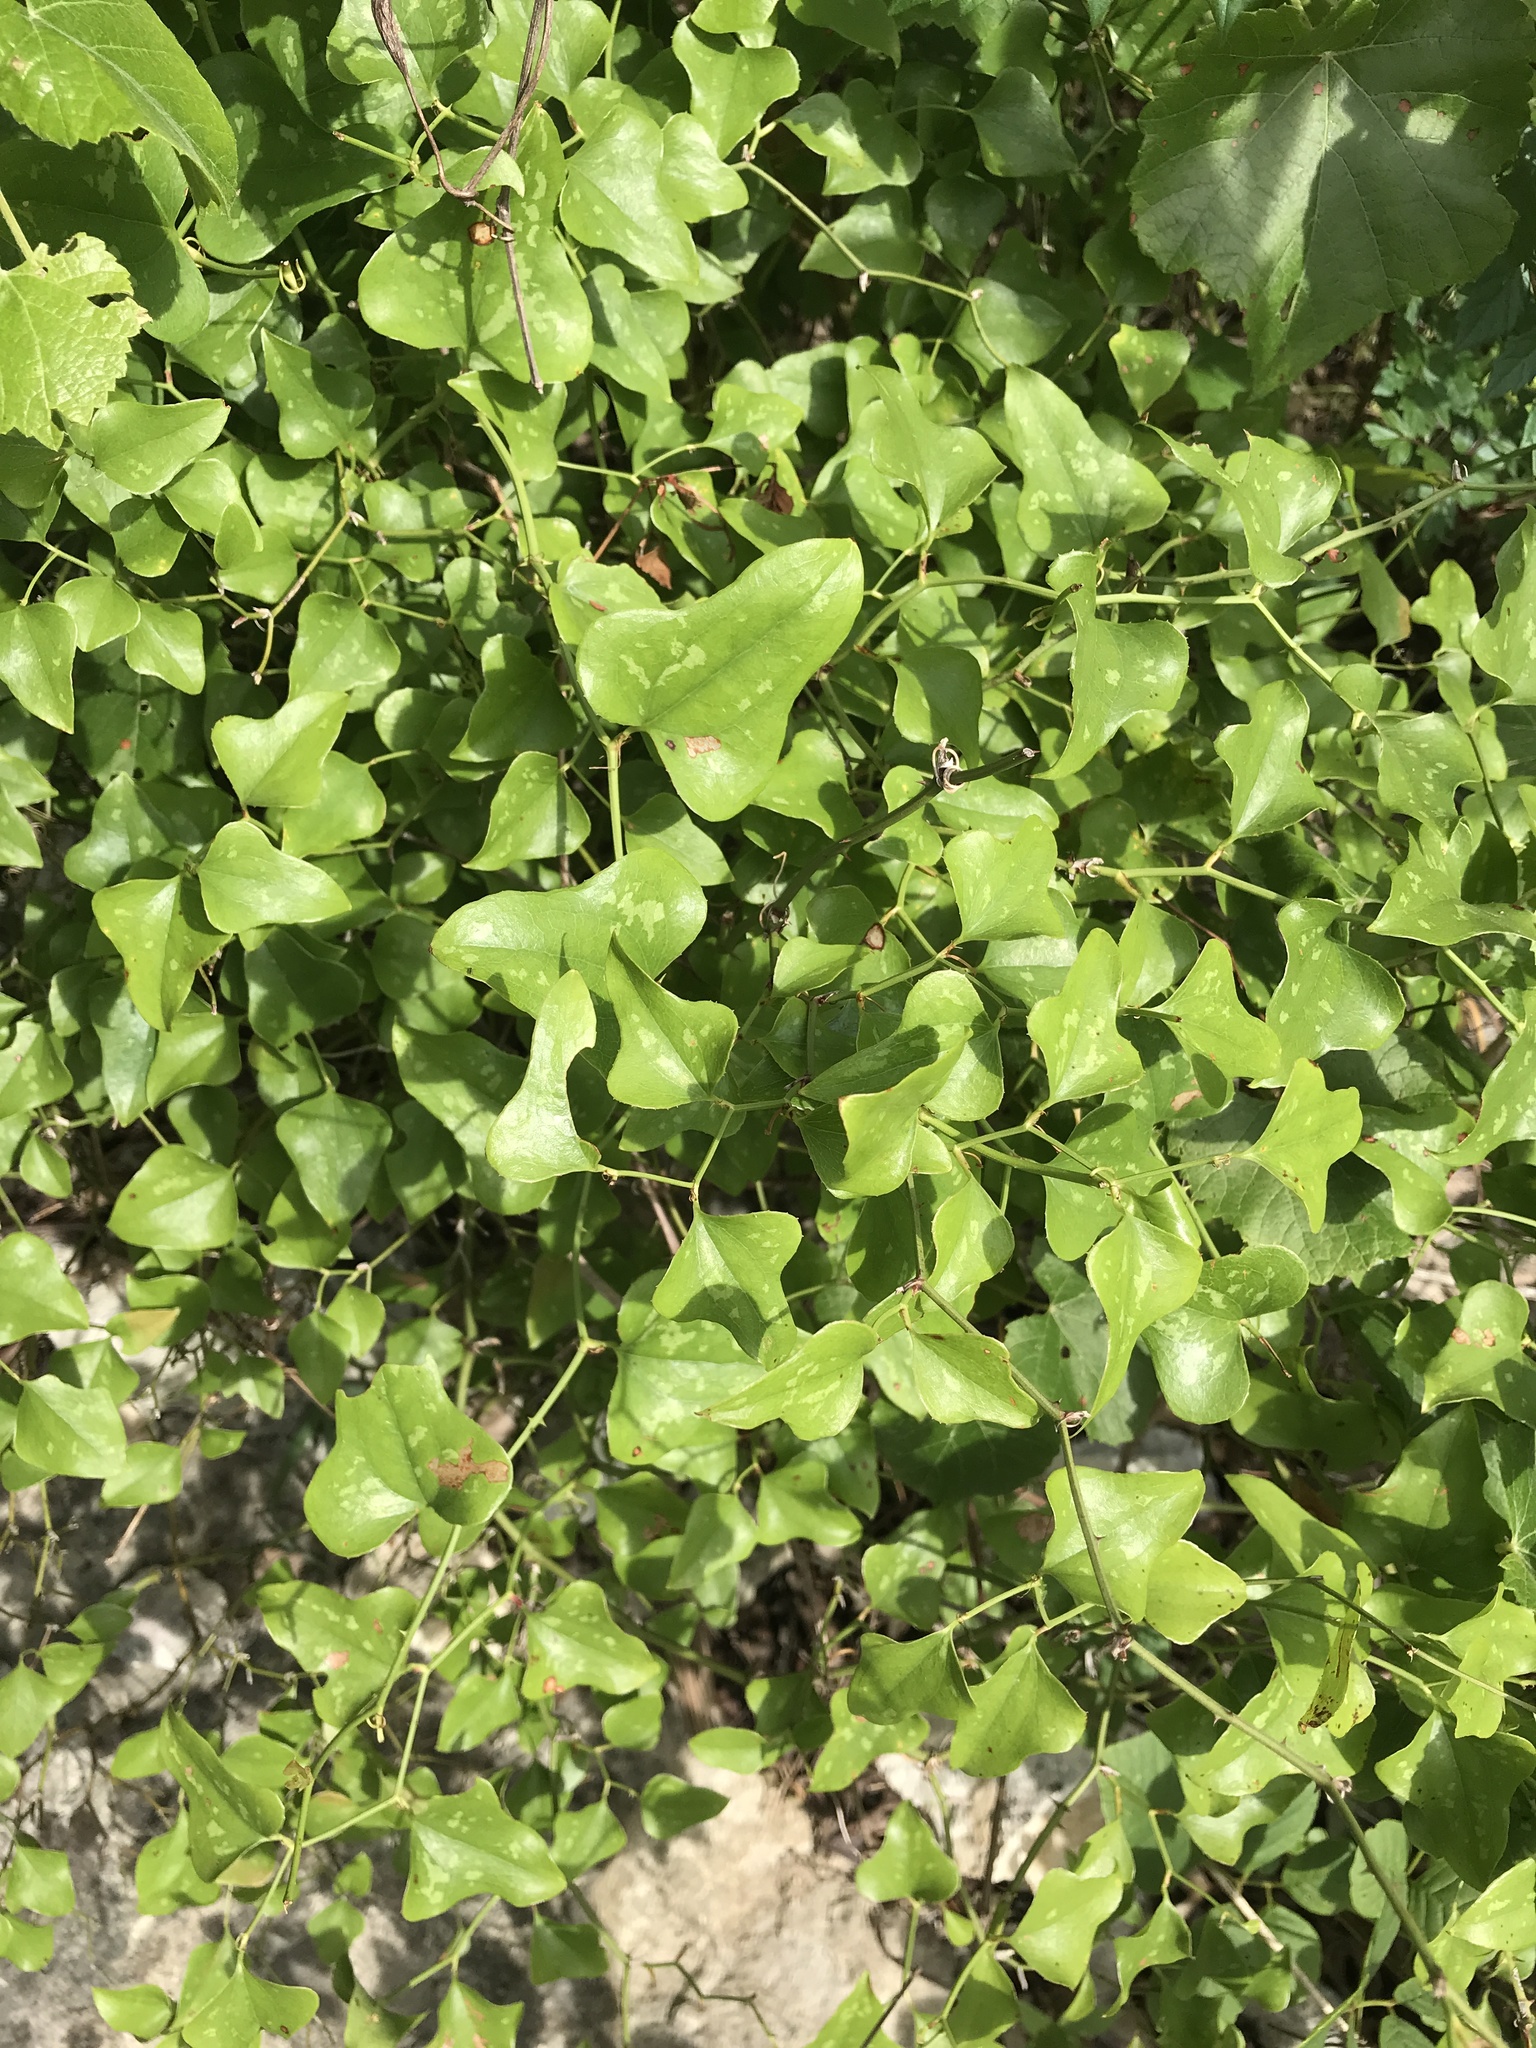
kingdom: Plantae
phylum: Tracheophyta
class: Liliopsida
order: Liliales
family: Smilacaceae
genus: Smilax
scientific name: Smilax bona-nox
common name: Catbrier
